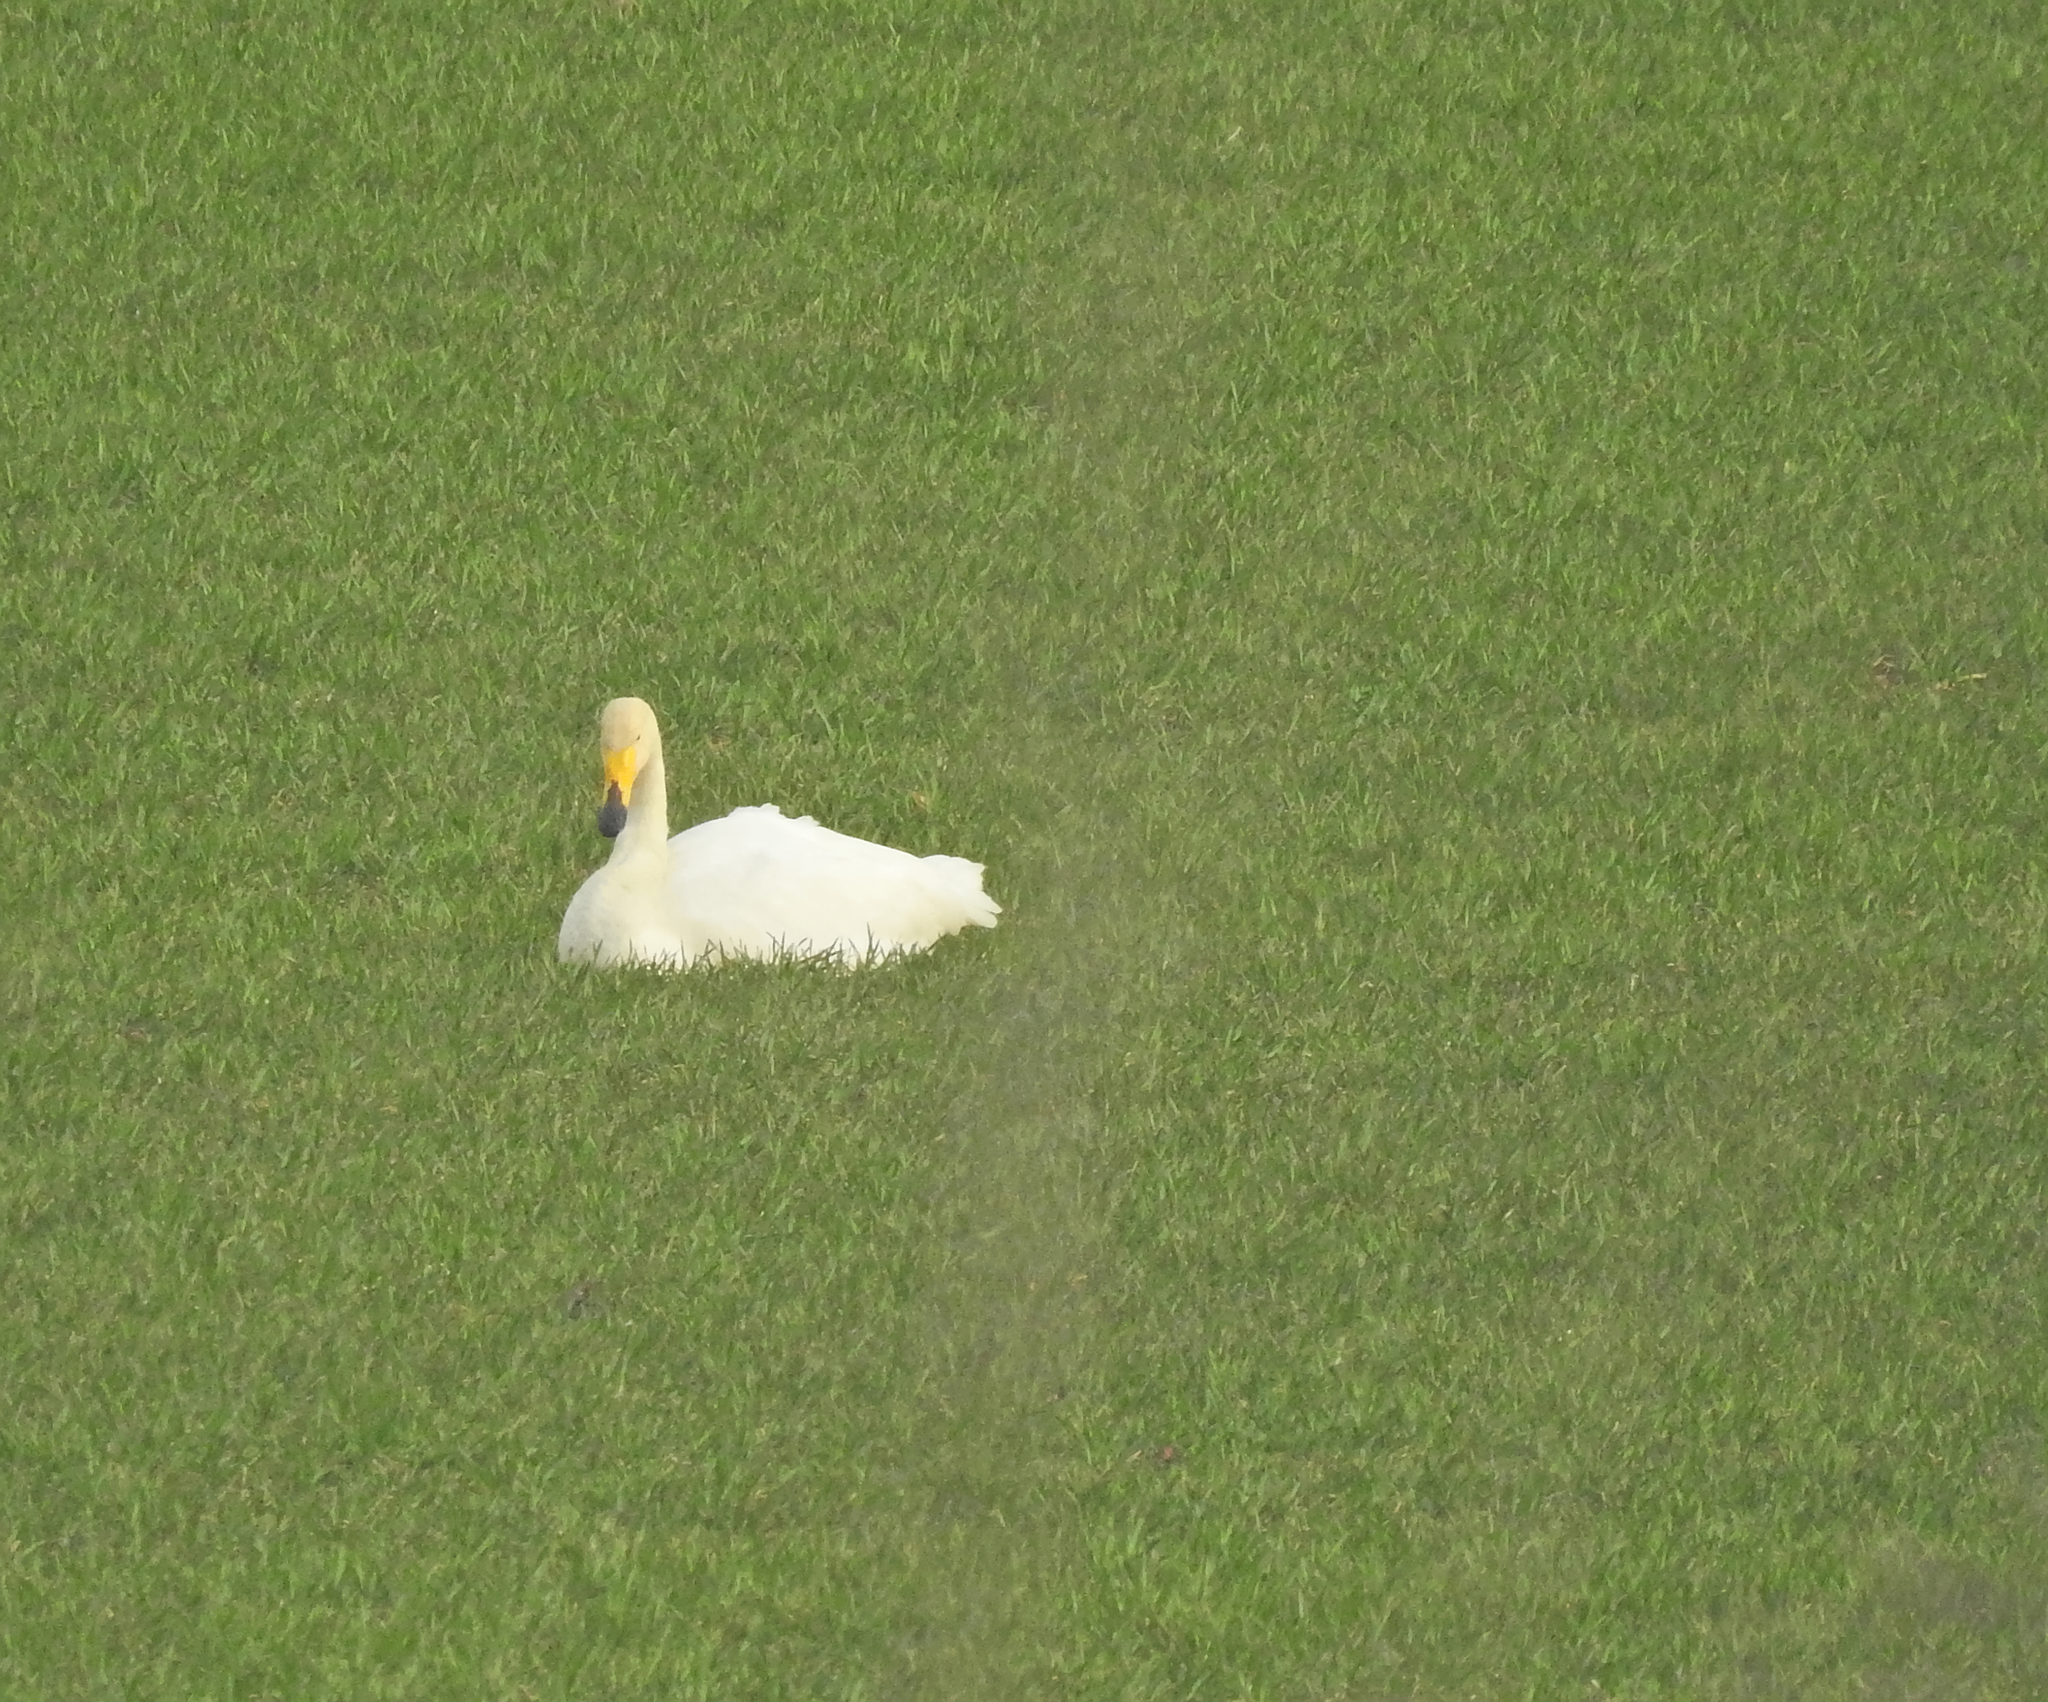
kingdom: Animalia
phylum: Chordata
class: Aves
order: Anseriformes
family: Anatidae
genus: Cygnus
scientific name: Cygnus cygnus
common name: Whooper swan
